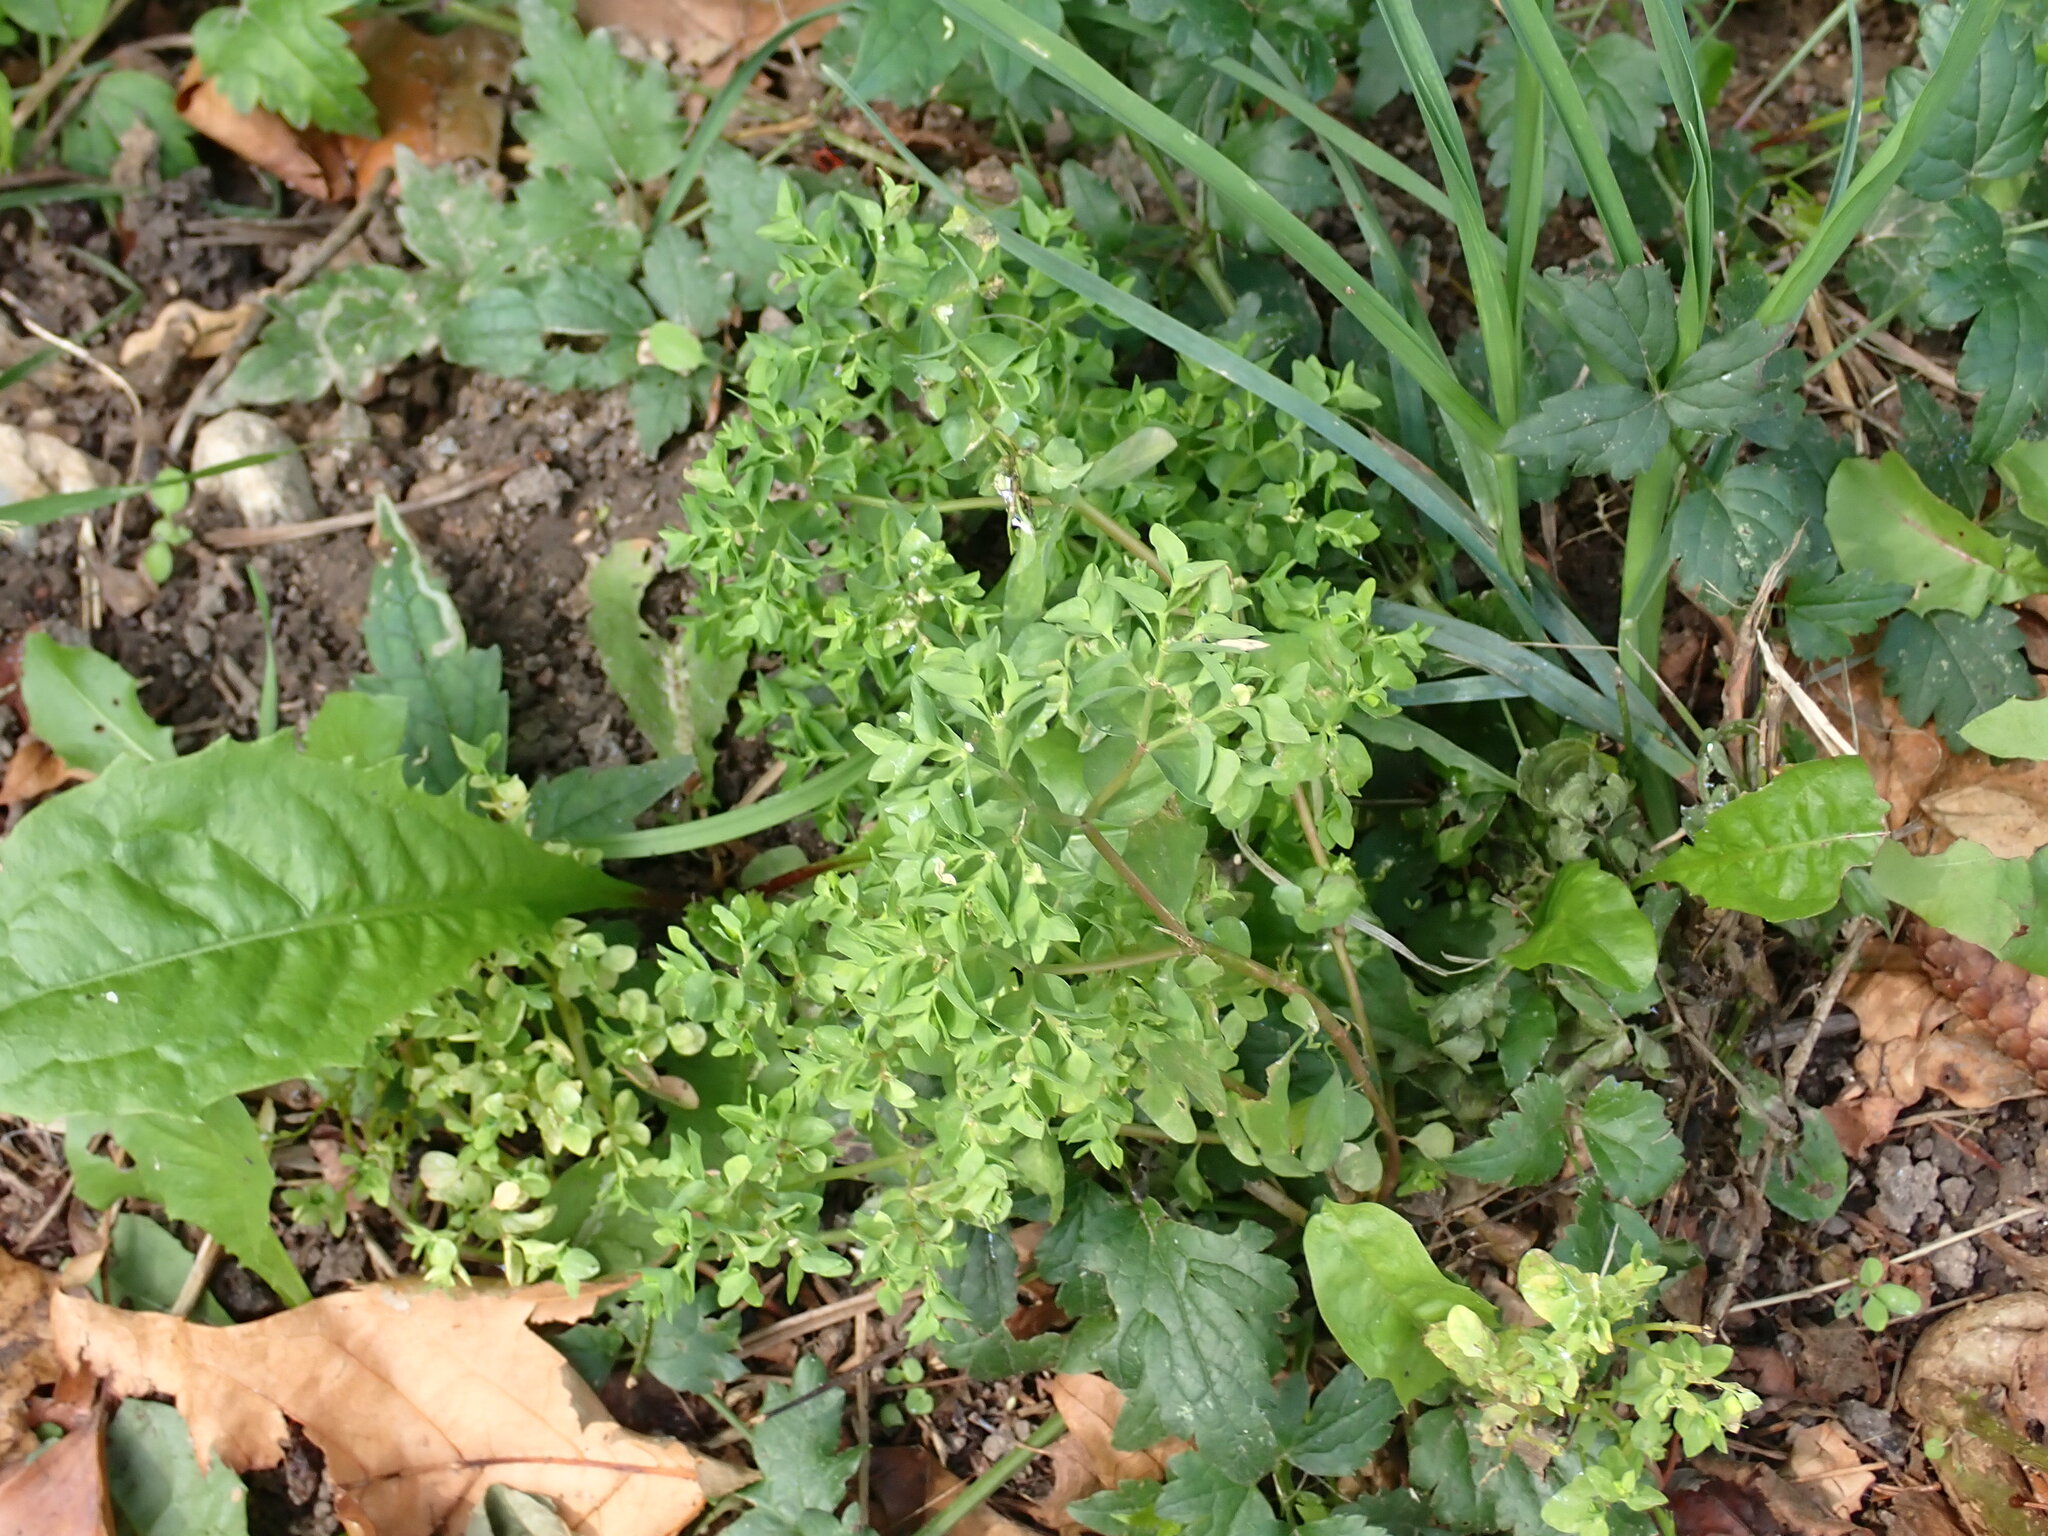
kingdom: Plantae
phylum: Tracheophyta
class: Magnoliopsida
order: Malpighiales
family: Euphorbiaceae
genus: Euphorbia
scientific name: Euphorbia peplus
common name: Petty spurge
